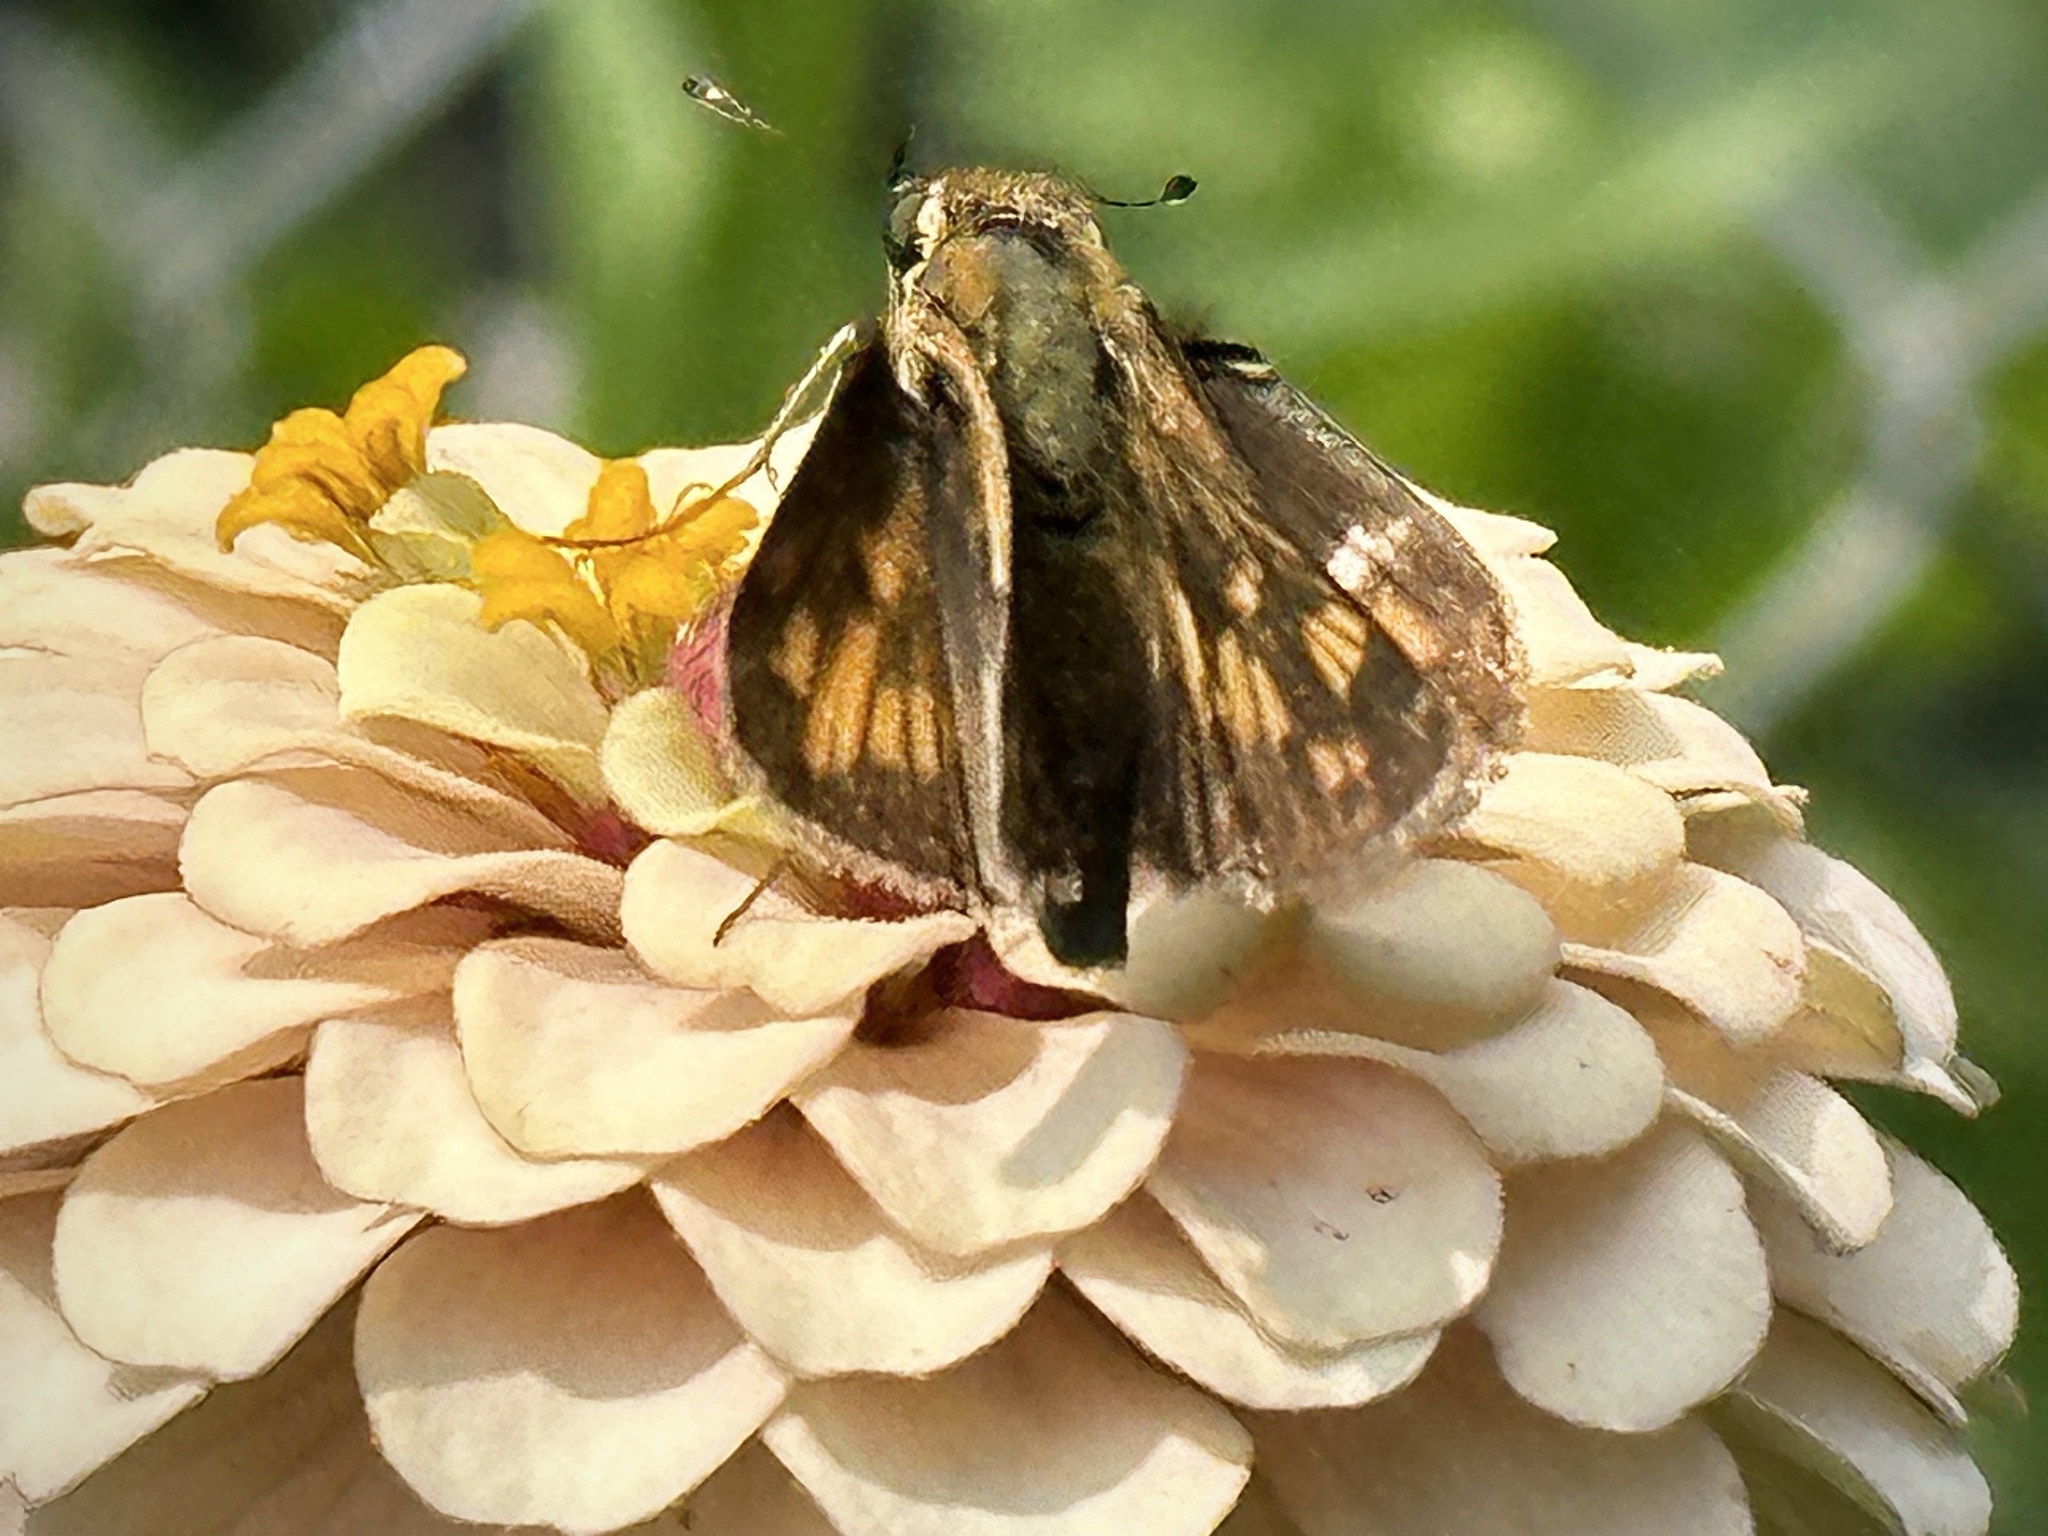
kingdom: Animalia
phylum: Arthropoda
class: Insecta
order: Lepidoptera
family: Hesperiidae
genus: Hylephila
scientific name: Hylephila phyleus
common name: Fiery skipper
